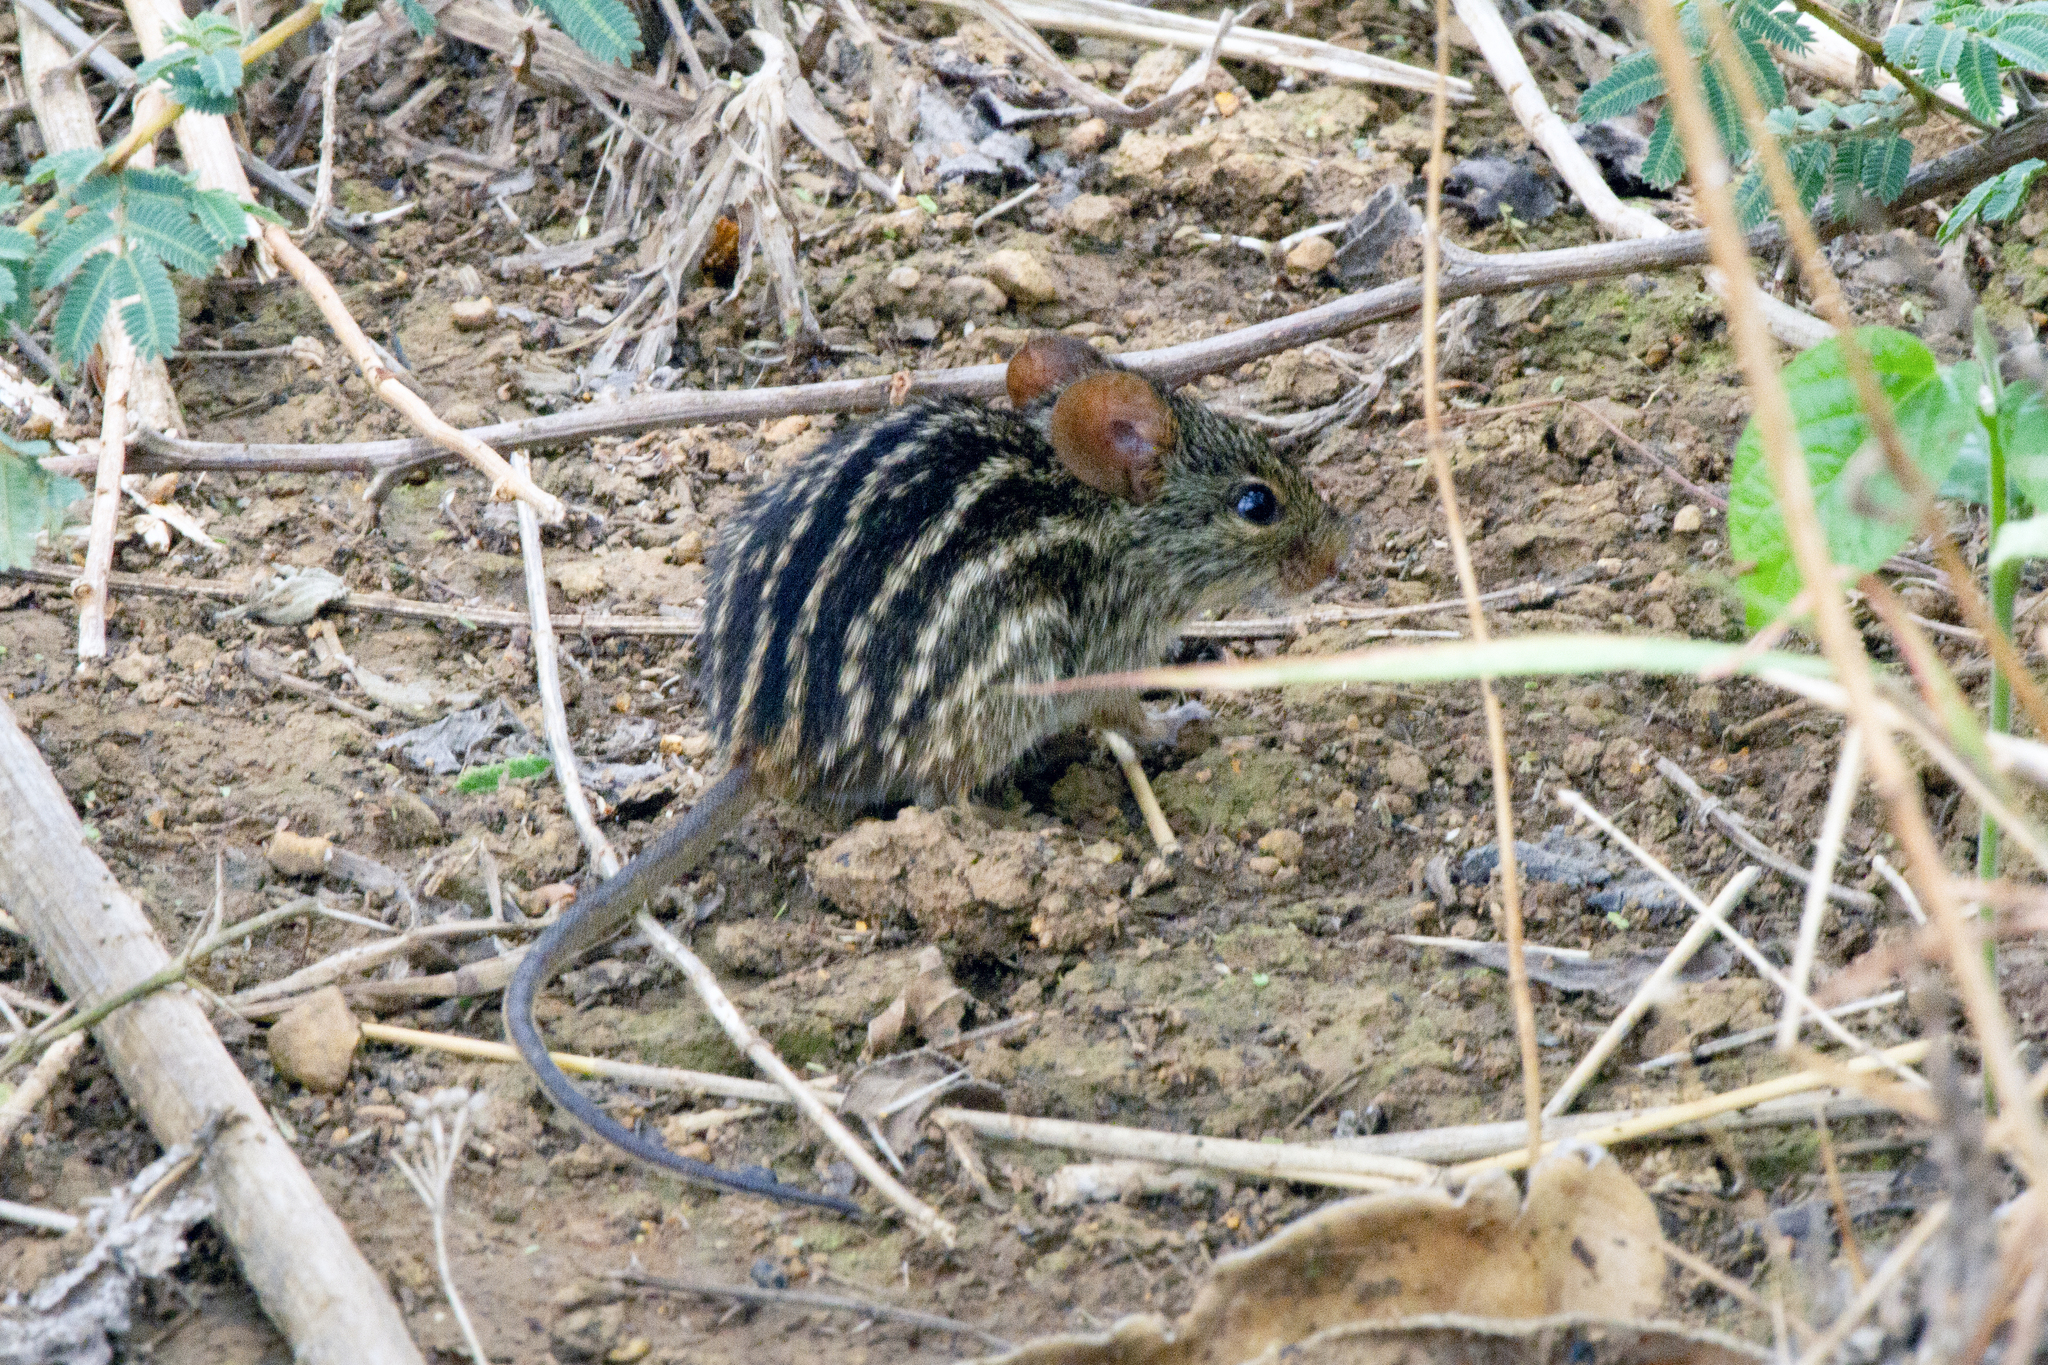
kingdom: Animalia
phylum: Chordata
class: Mammalia
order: Rodentia
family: Muridae
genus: Lemniscomys
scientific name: Lemniscomys macculus
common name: Buffoon lemniscomys
